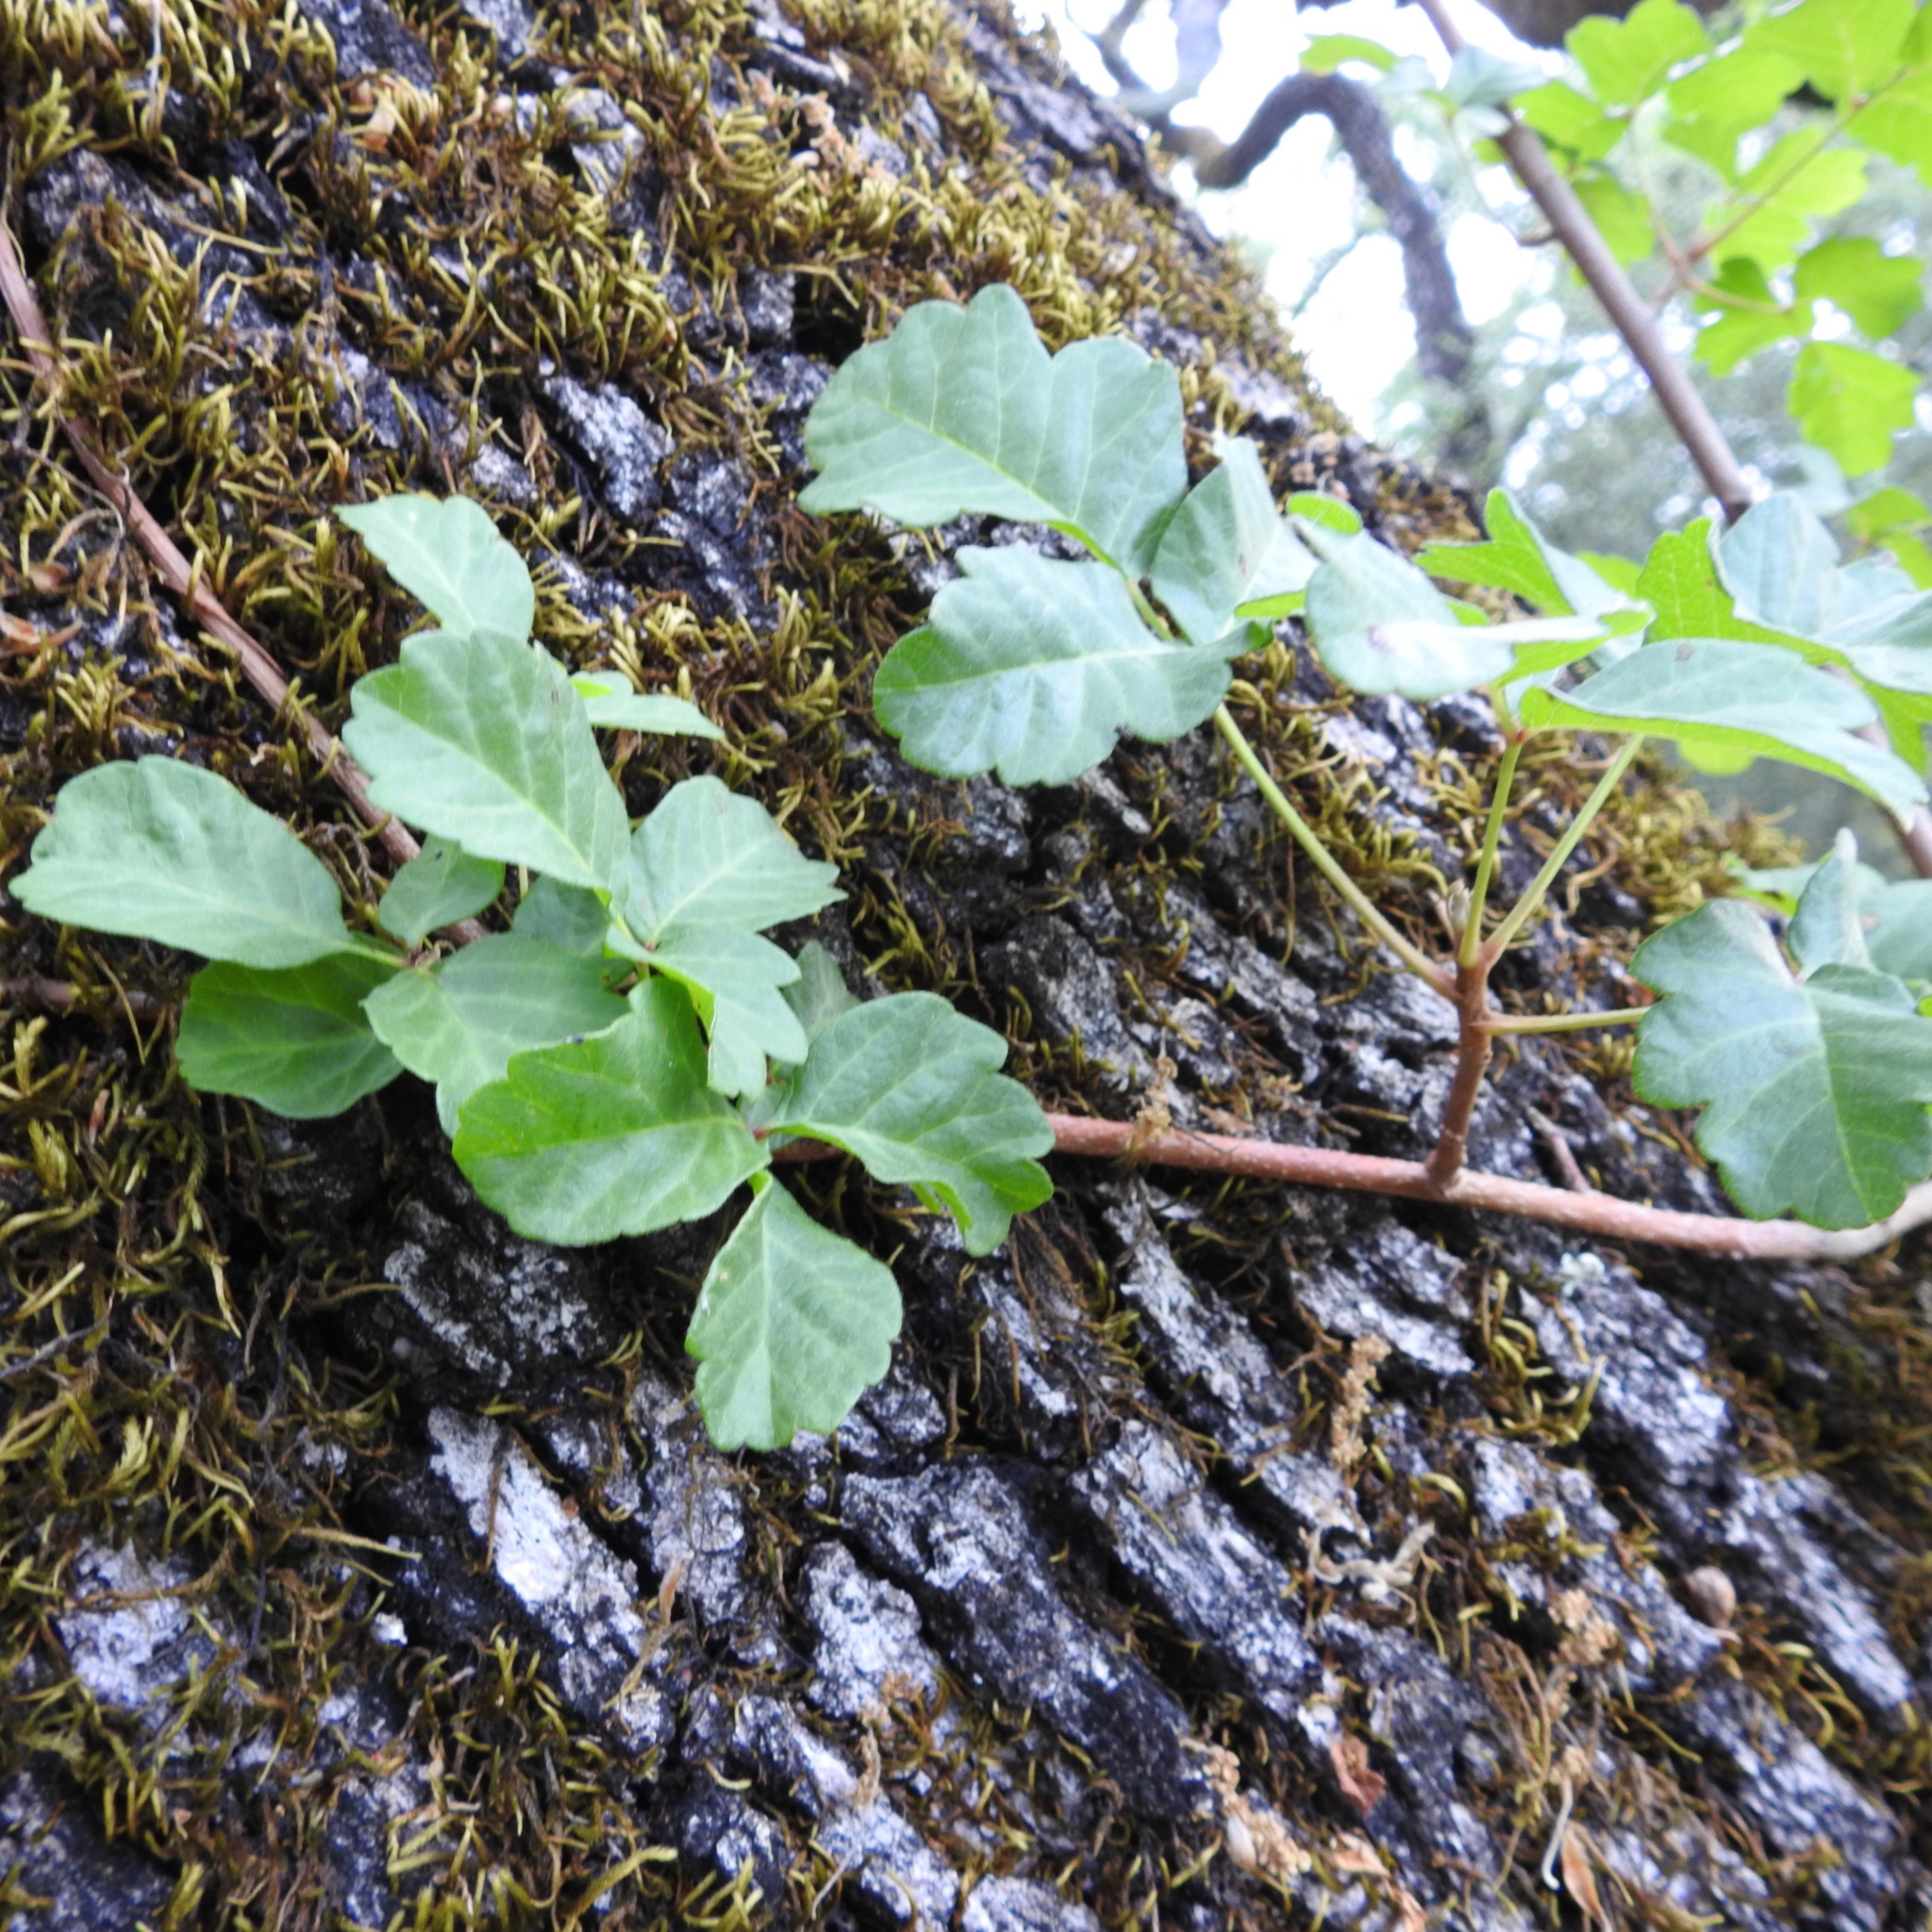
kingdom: Plantae
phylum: Tracheophyta
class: Magnoliopsida
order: Sapindales
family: Anacardiaceae
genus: Toxicodendron
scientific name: Toxicodendron diversilobum
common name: Pacific poison-oak
